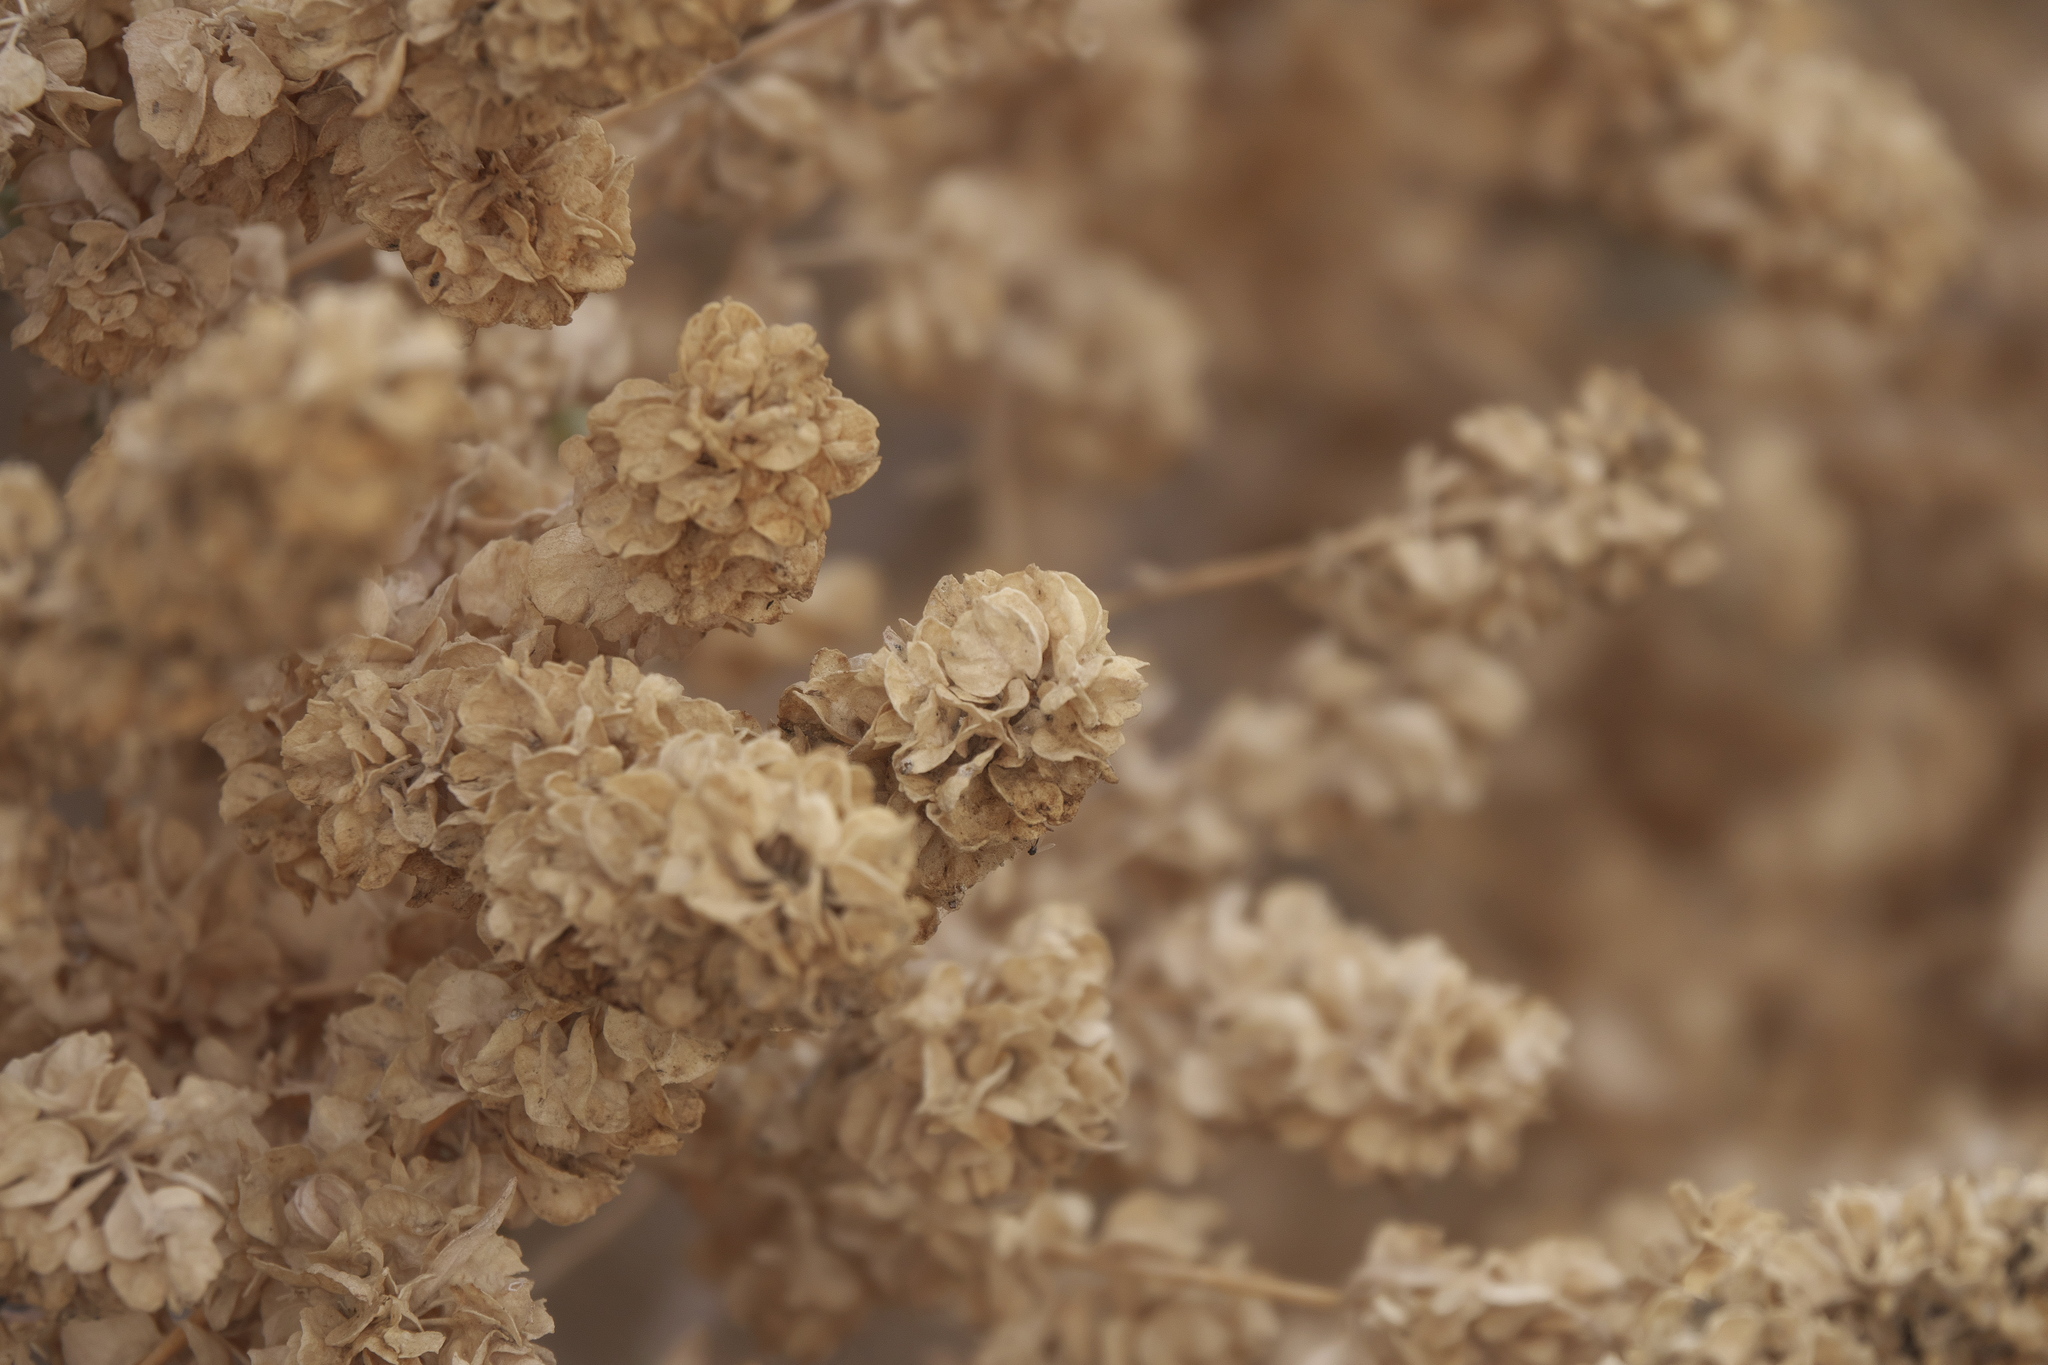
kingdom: Plantae
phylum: Tracheophyta
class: Magnoliopsida
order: Caryophyllales
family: Amaranthaceae
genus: Atriplex
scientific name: Atriplex canescens
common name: Four-wing saltbush
